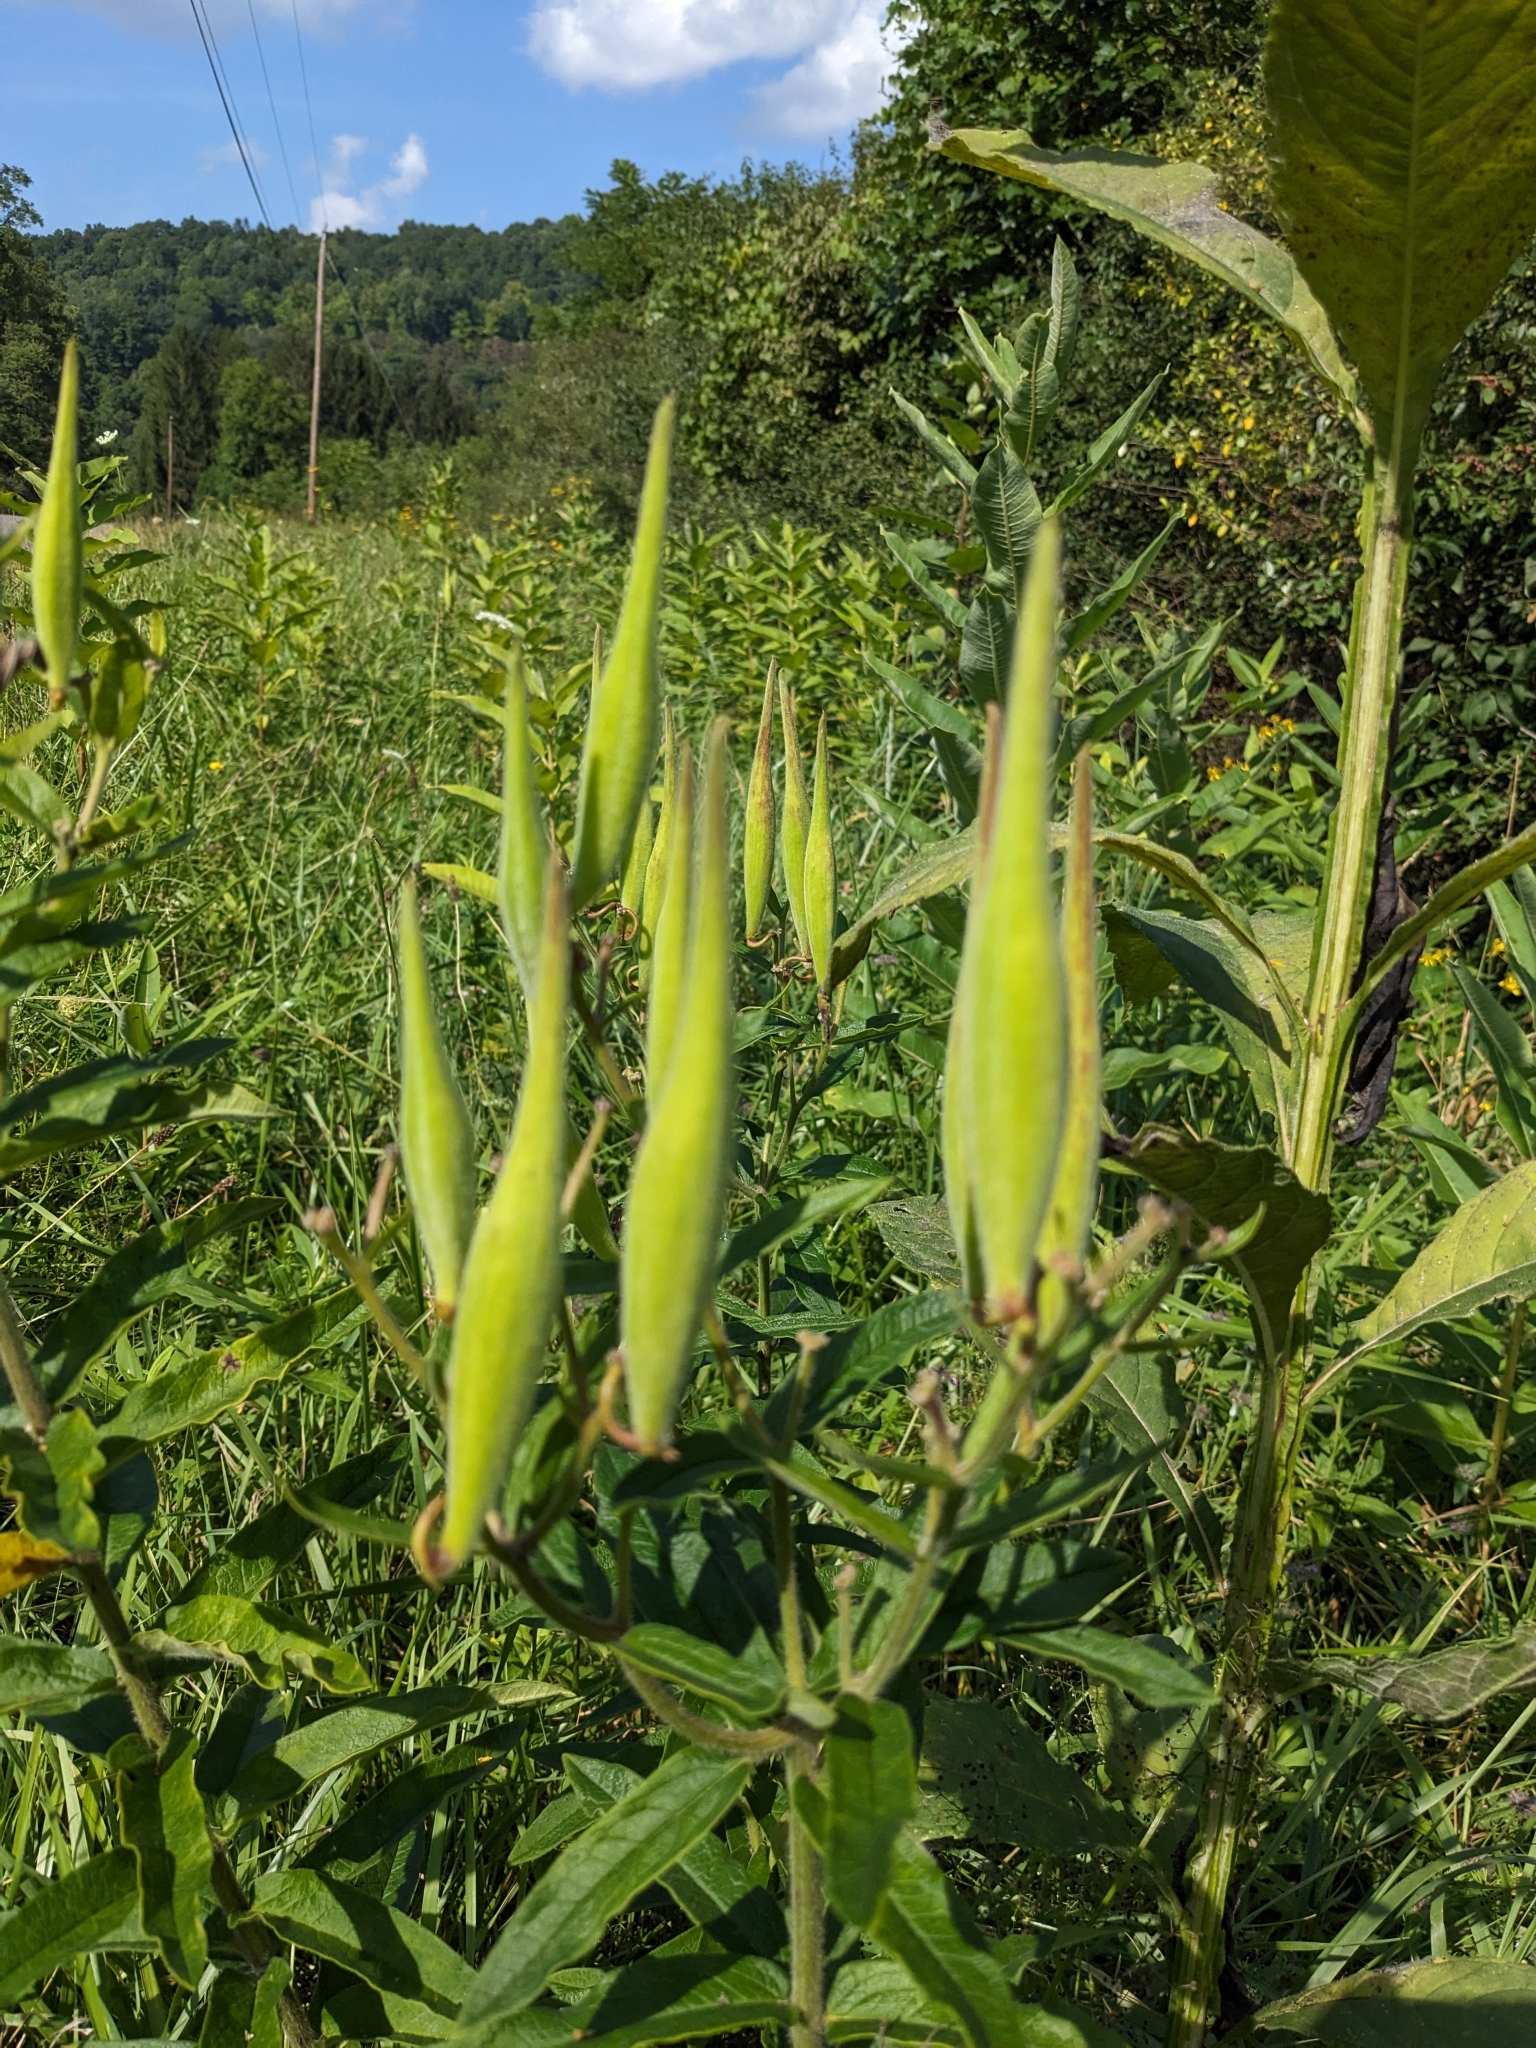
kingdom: Plantae
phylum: Tracheophyta
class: Magnoliopsida
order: Gentianales
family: Apocynaceae
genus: Asclepias
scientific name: Asclepias tuberosa
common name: Butterfly milkweed
